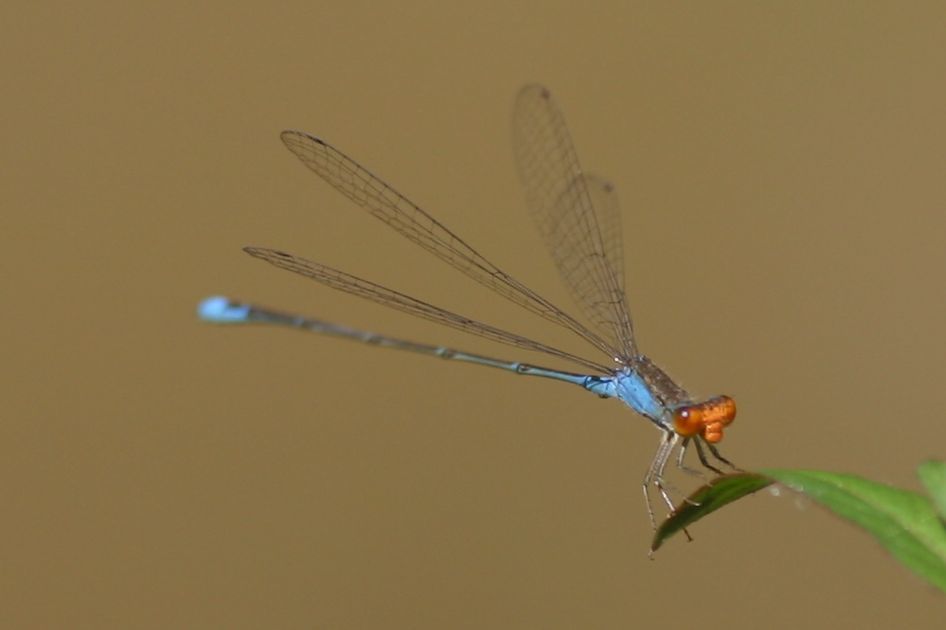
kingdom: Animalia
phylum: Arthropoda
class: Insecta
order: Odonata
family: Coenagrionidae
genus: Pseudagrion
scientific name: Pseudagrion rubriceps
